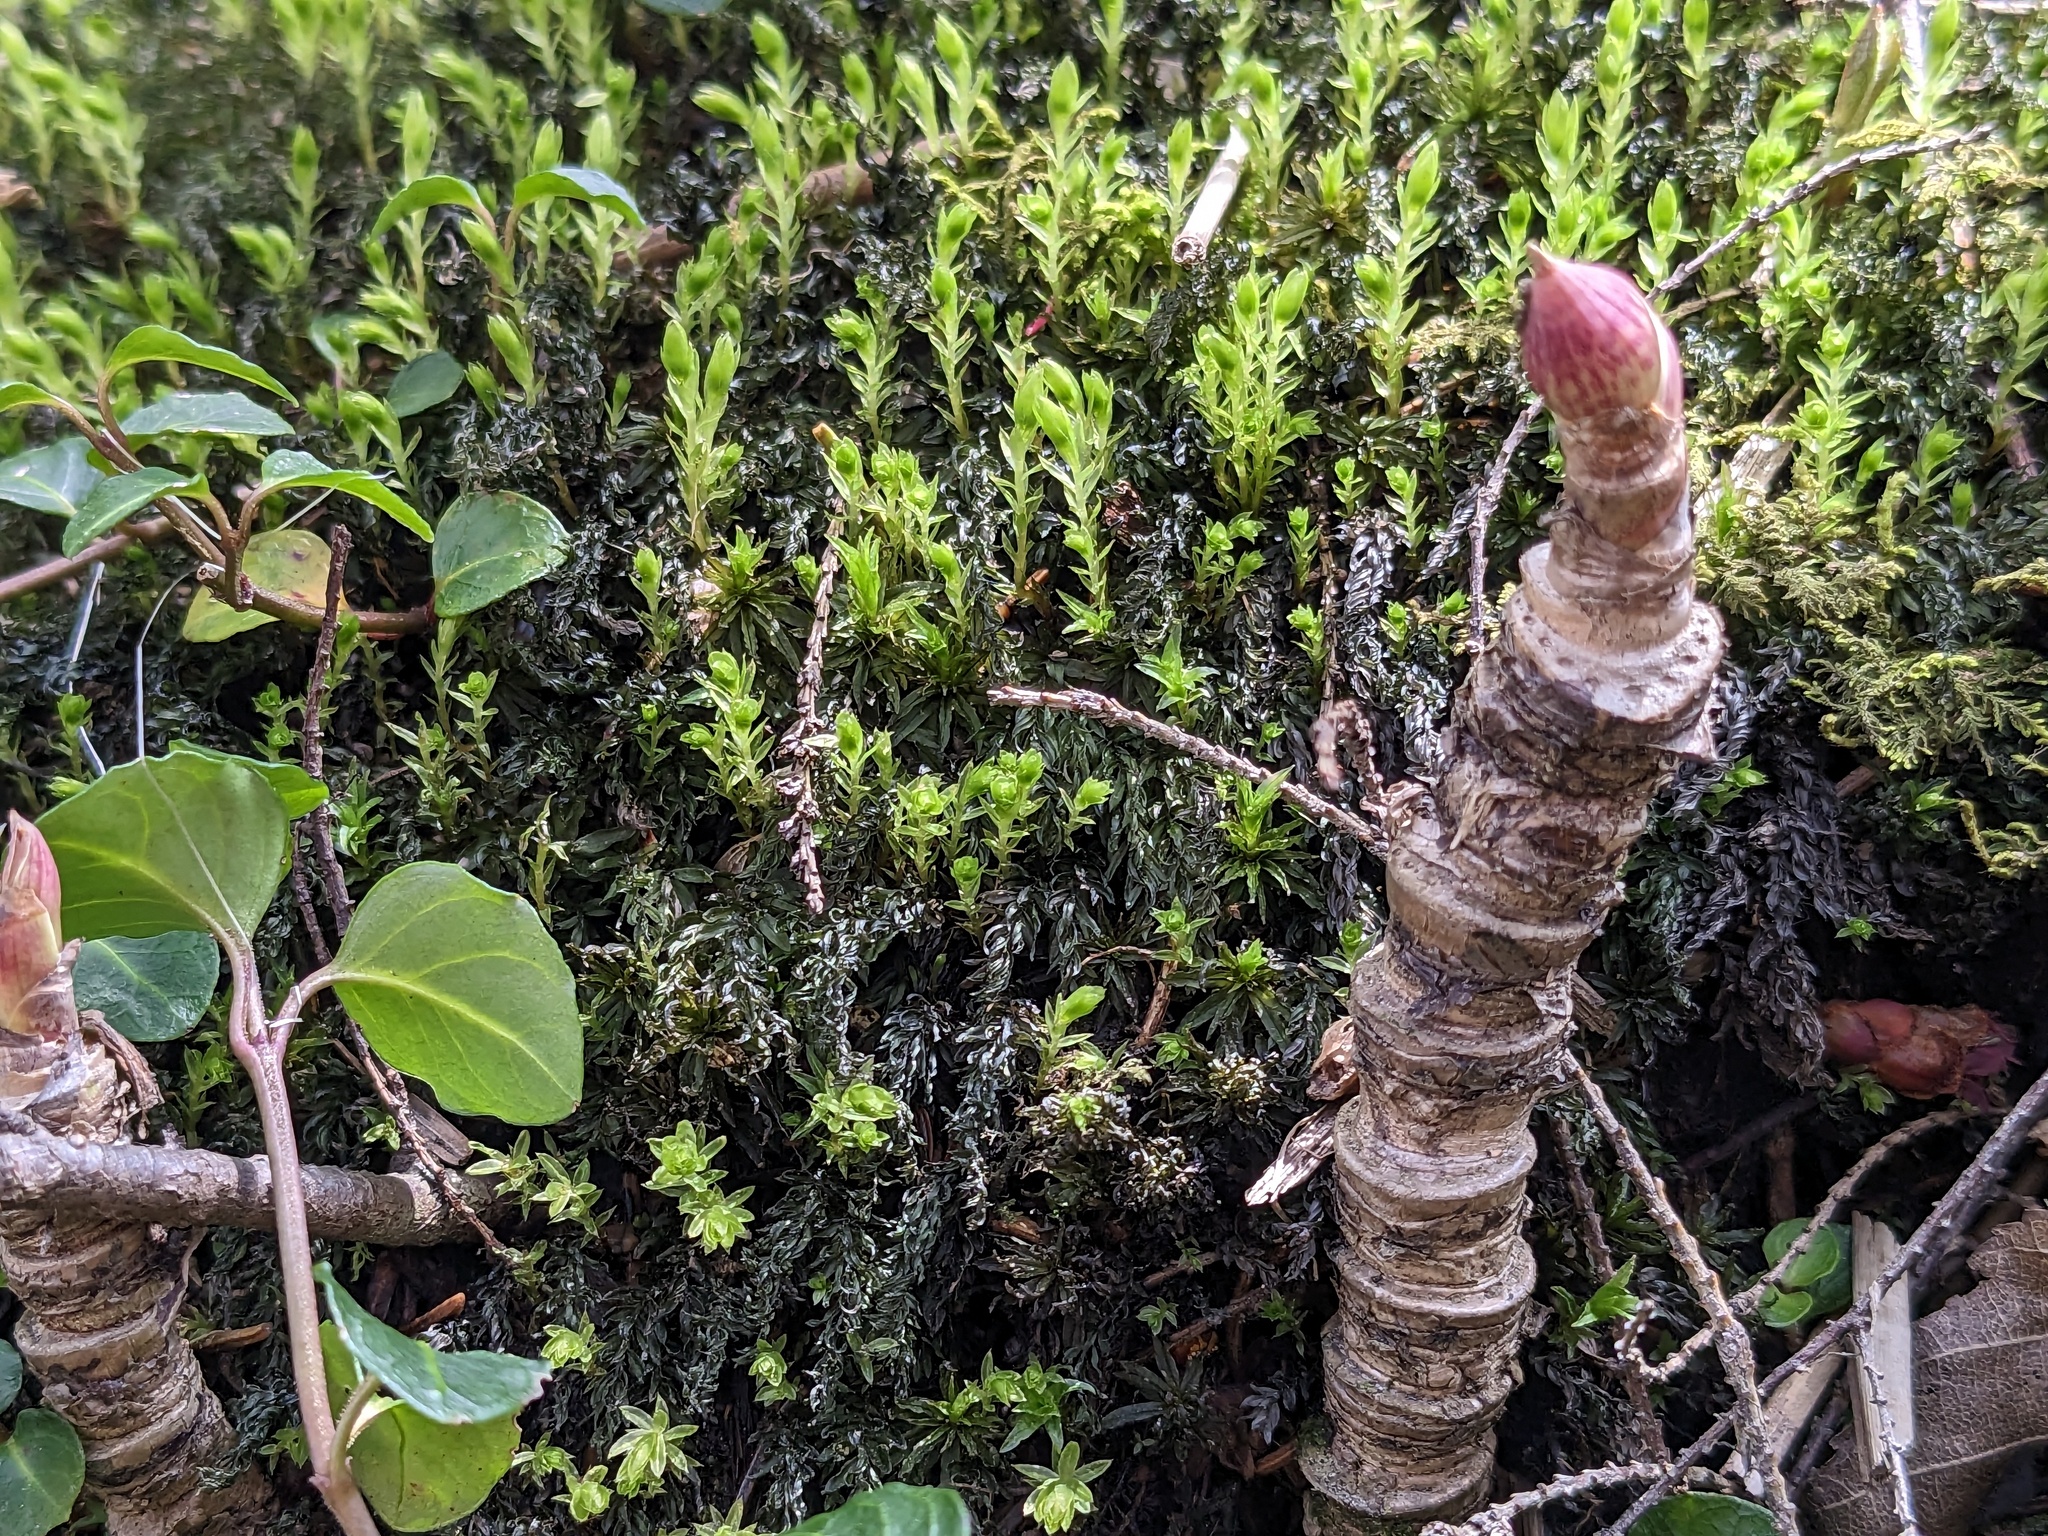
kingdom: Plantae
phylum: Tracheophyta
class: Magnoliopsida
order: Apiales
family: Araliaceae
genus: Aralia
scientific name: Aralia nudicaulis
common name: Wild sarsaparilla
